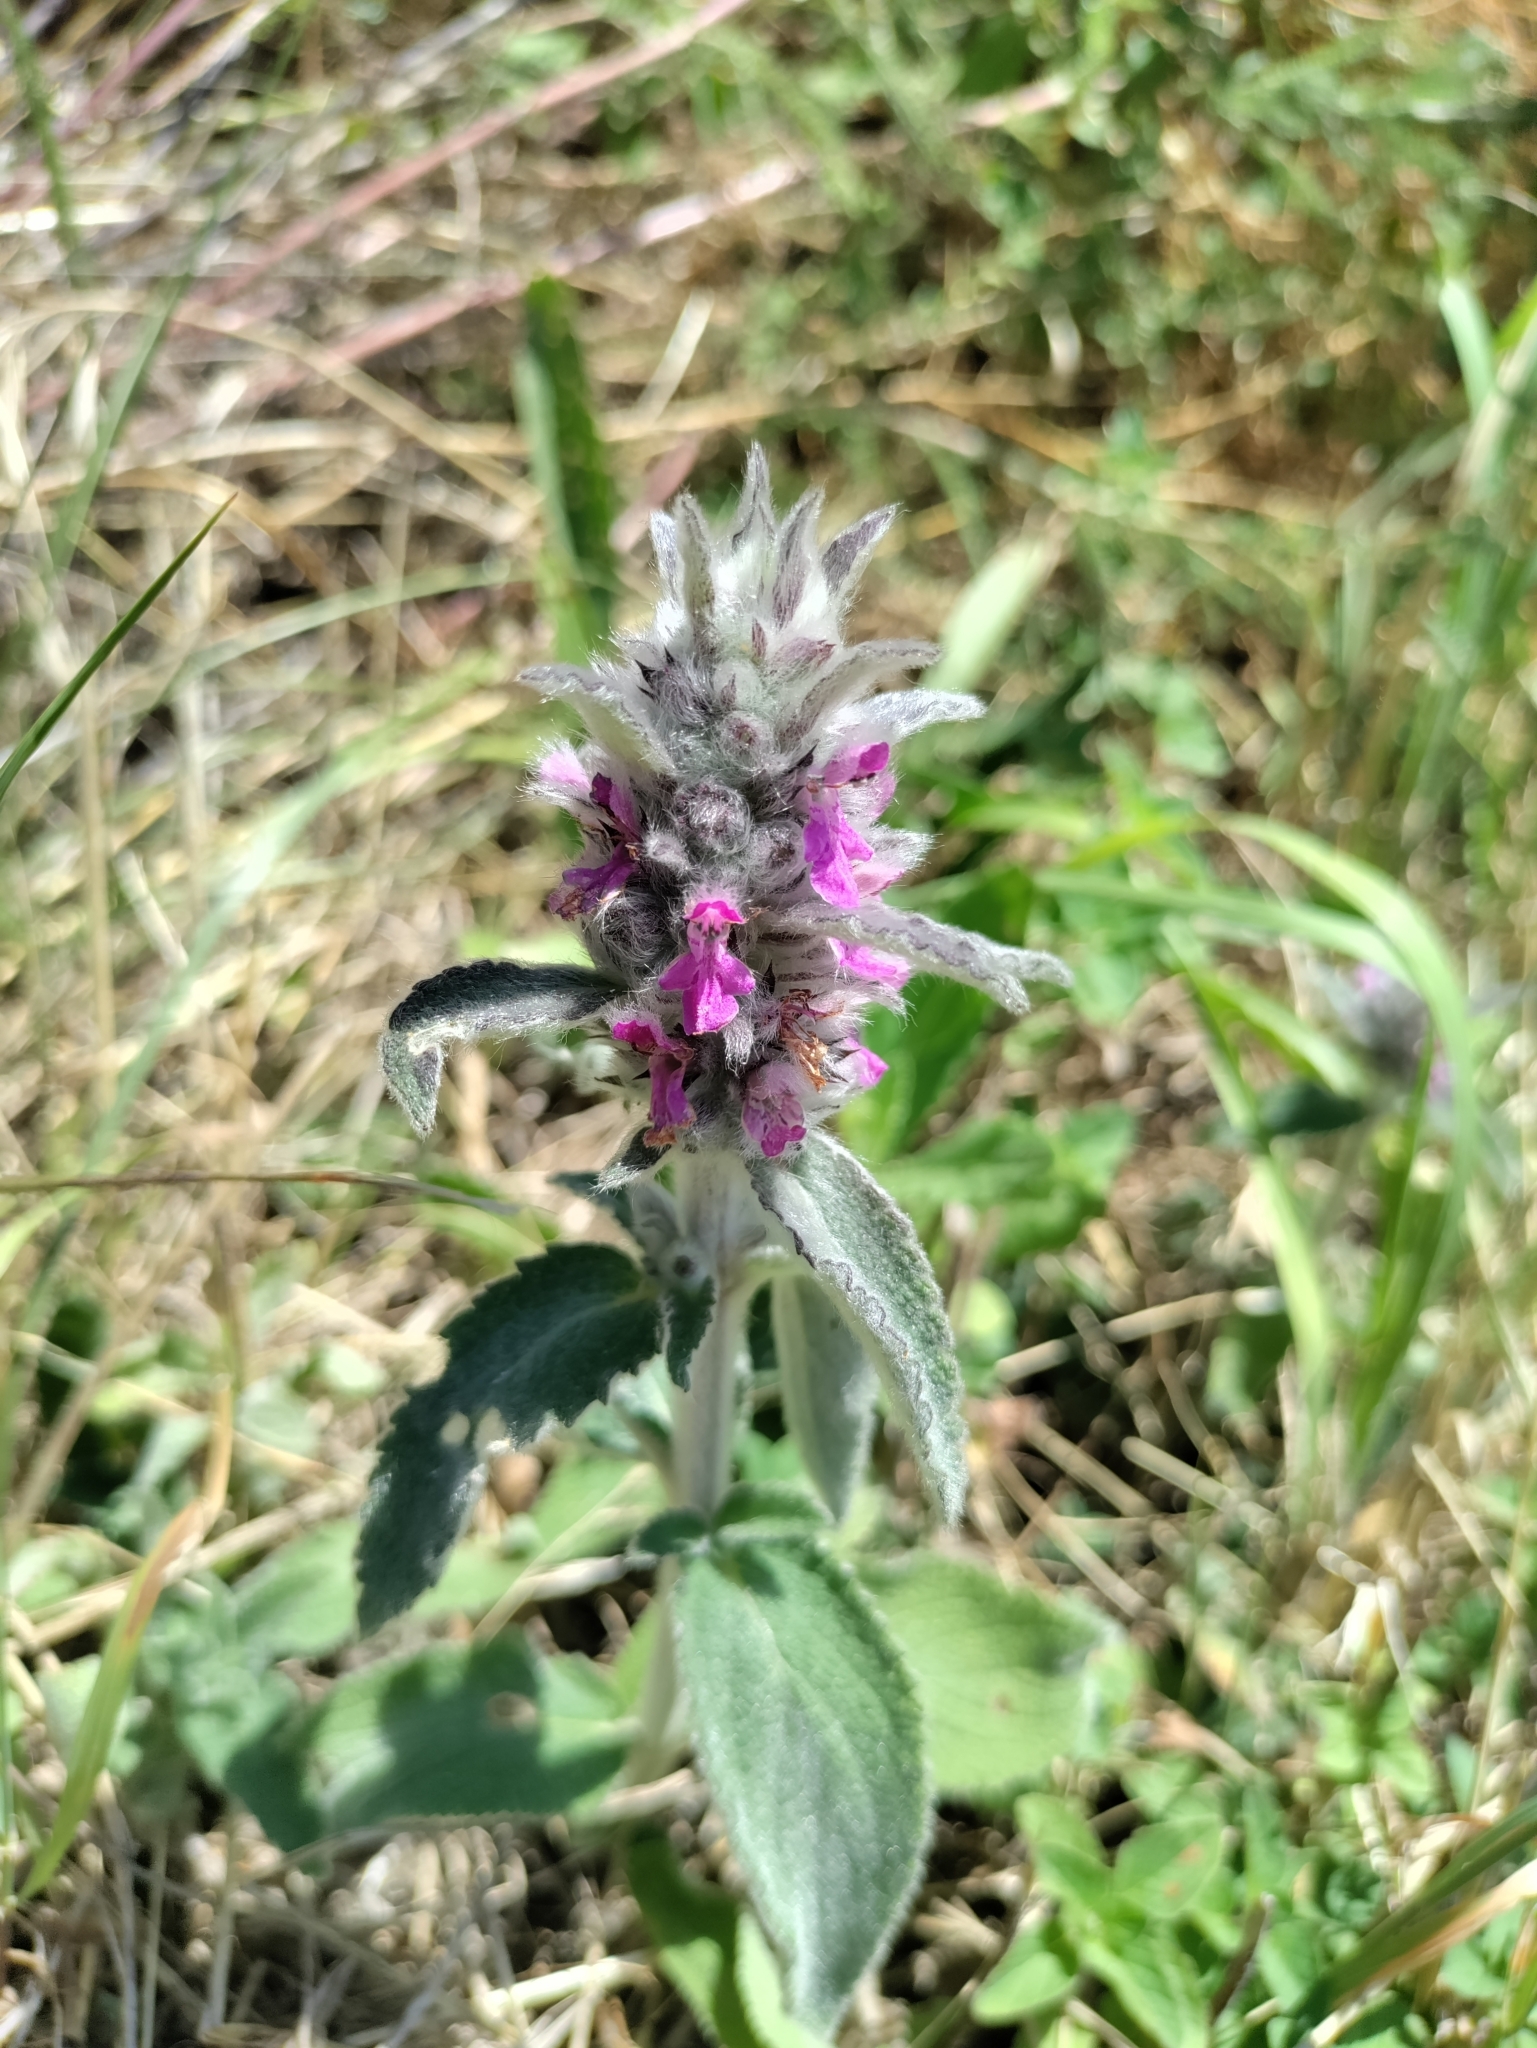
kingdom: Plantae
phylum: Tracheophyta
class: Magnoliopsida
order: Lamiales
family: Lamiaceae
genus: Stachys
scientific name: Stachys germanica
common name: Downy woundwort
